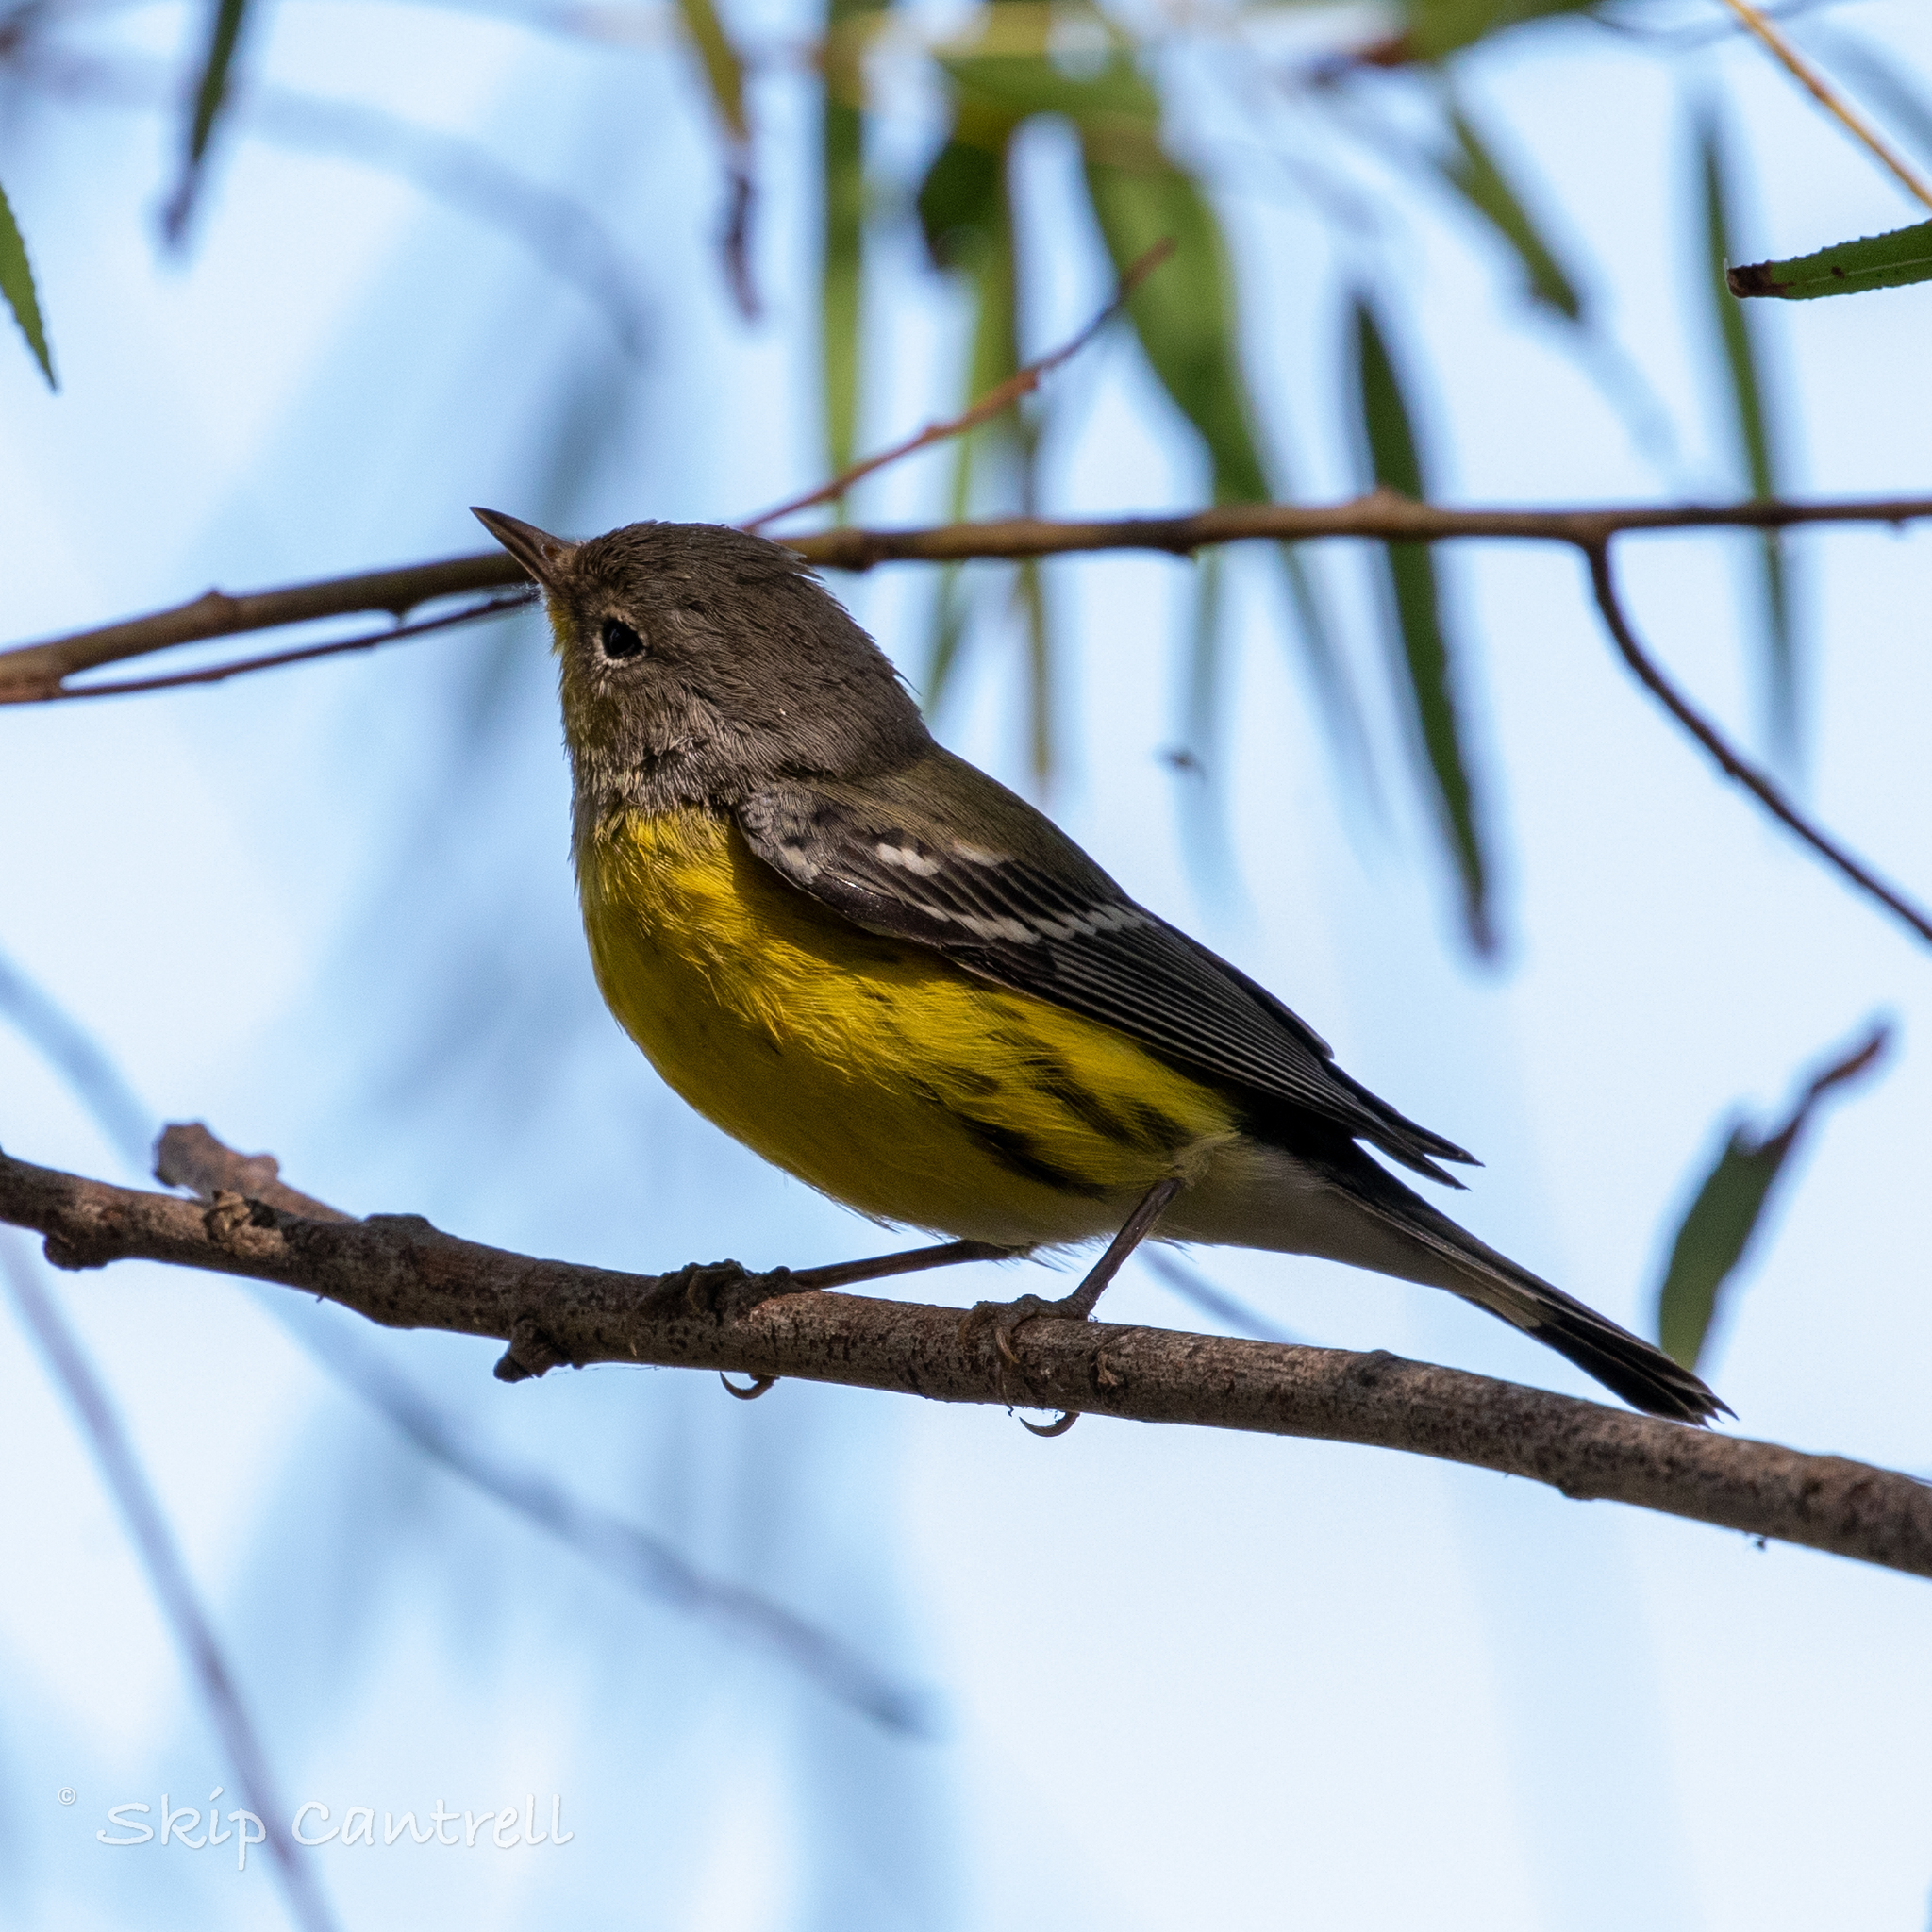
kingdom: Animalia
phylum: Chordata
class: Aves
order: Passeriformes
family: Parulidae
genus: Setophaga
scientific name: Setophaga magnolia
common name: Magnolia warbler
